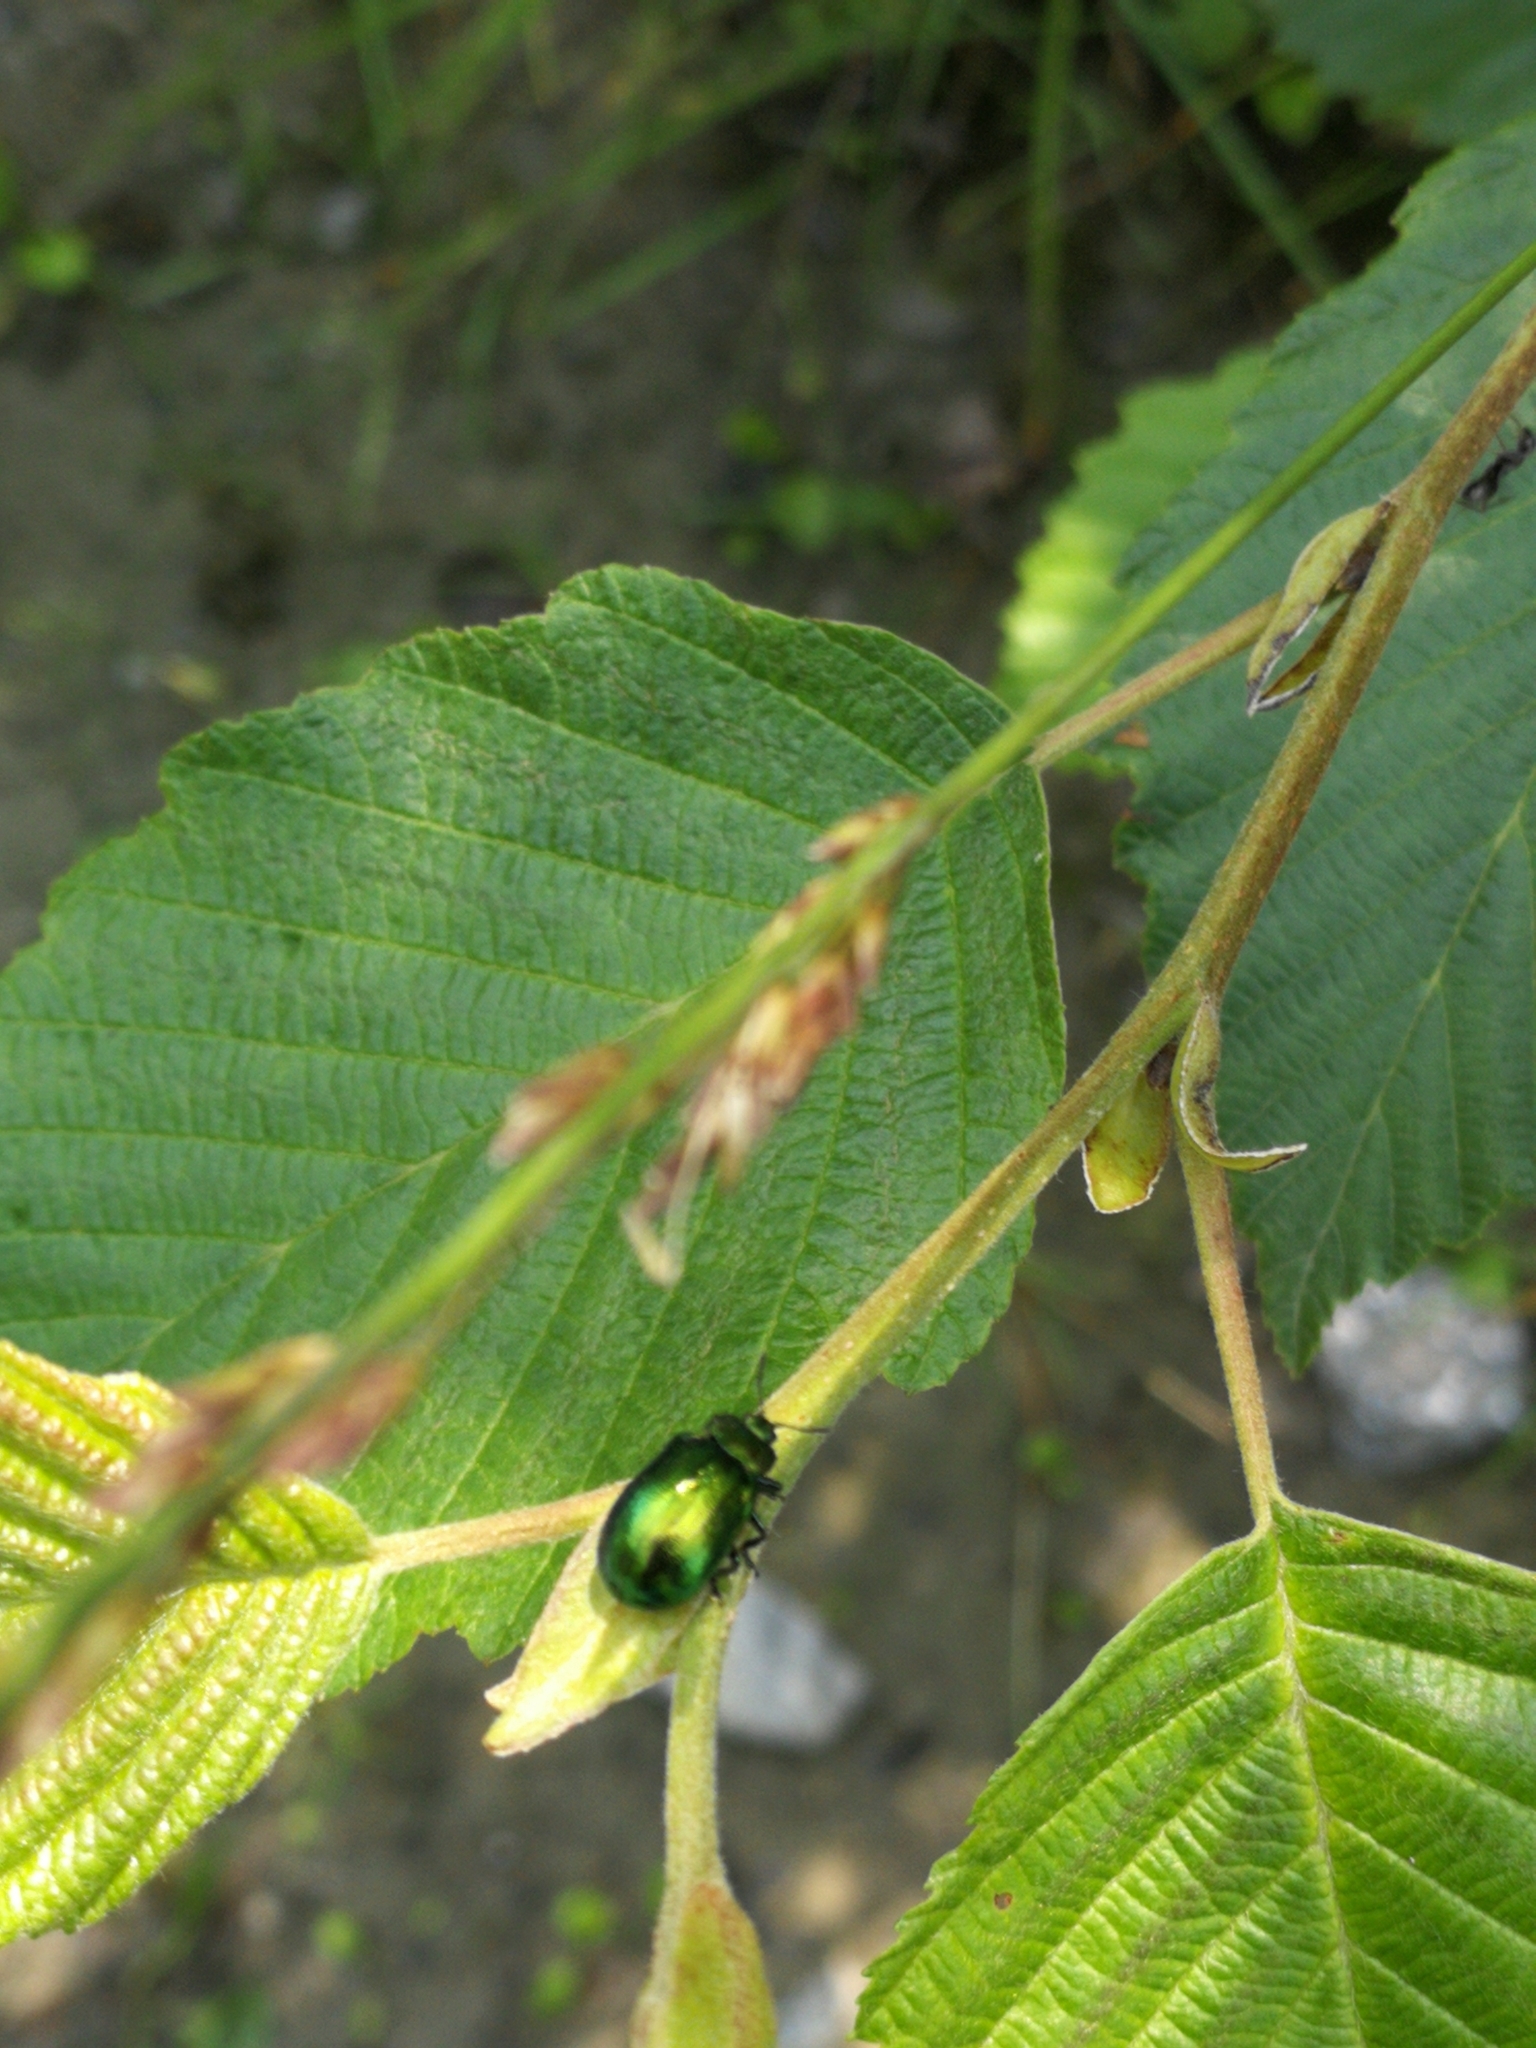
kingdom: Animalia
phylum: Arthropoda
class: Insecta
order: Coleoptera
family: Chrysomelidae
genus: Plagiosterna
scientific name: Plagiosterna aenea
